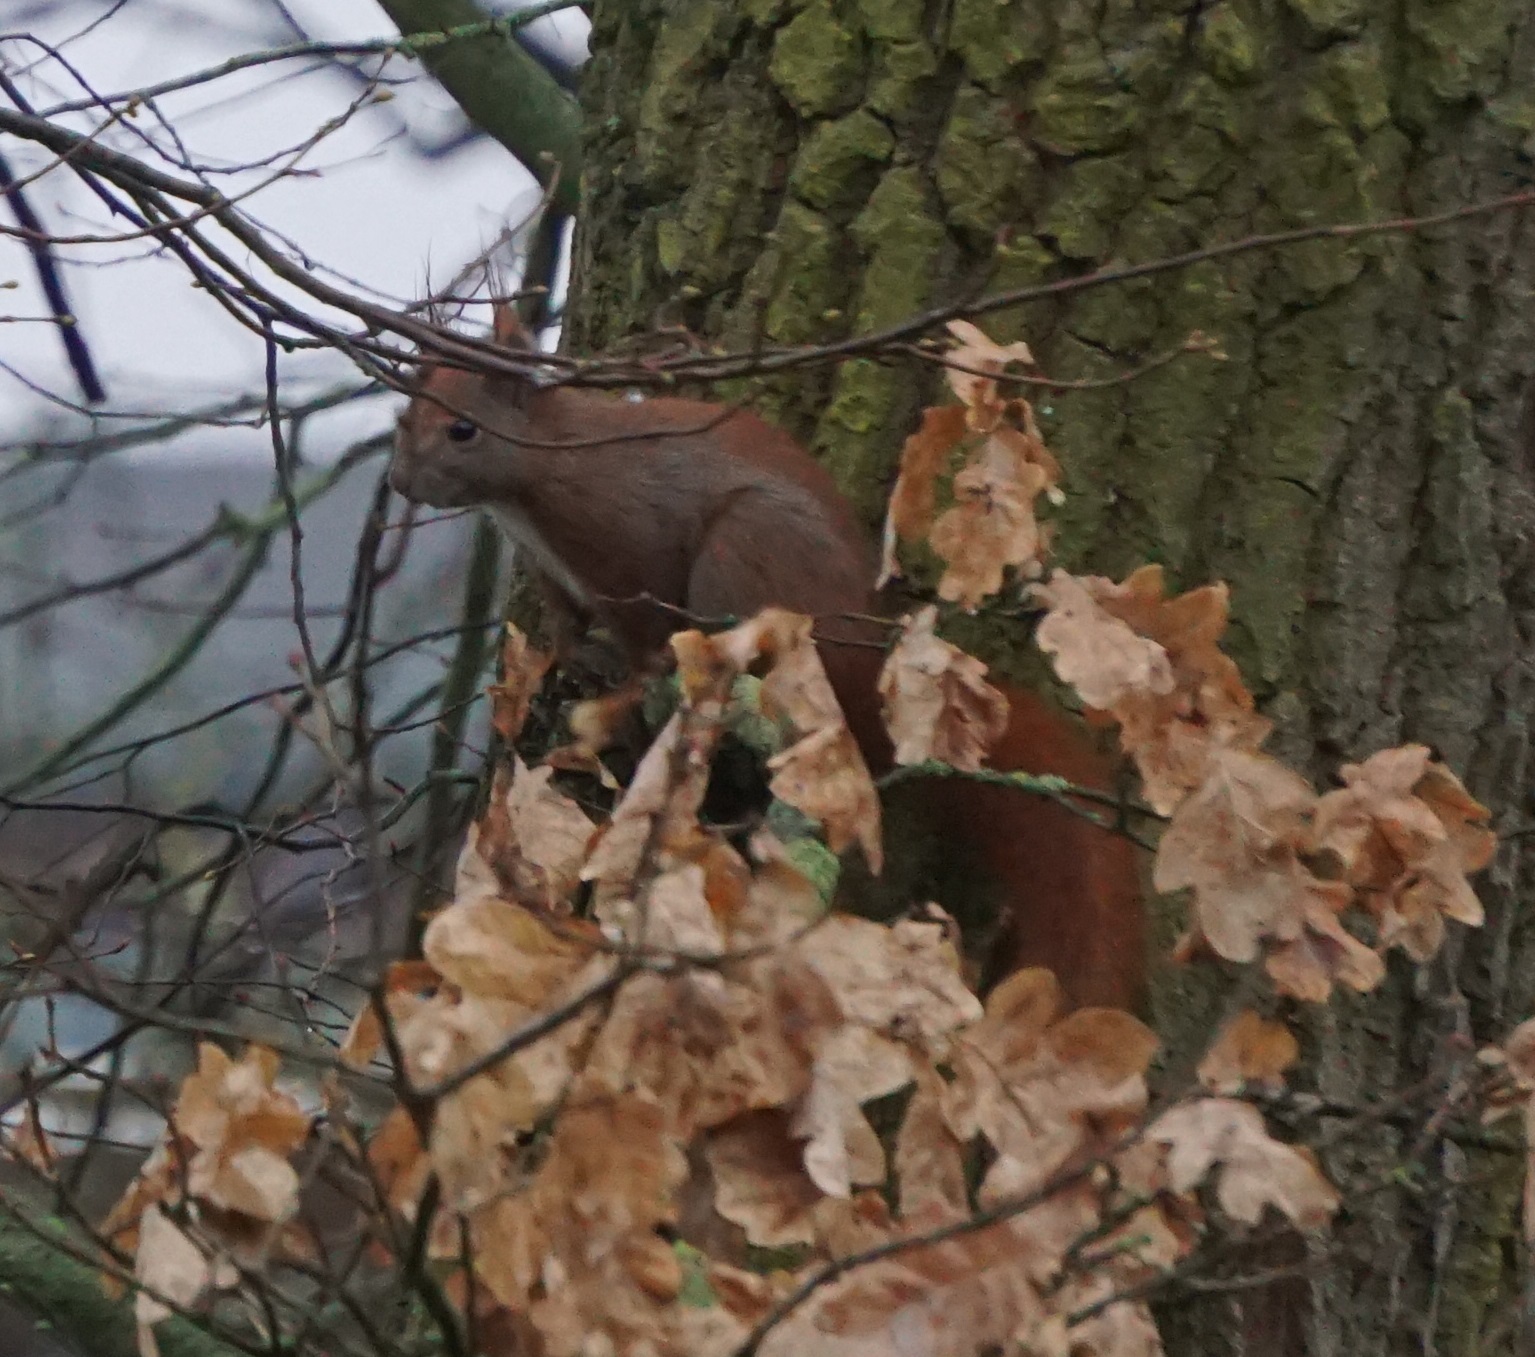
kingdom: Animalia
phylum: Chordata
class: Mammalia
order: Rodentia
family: Sciuridae
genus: Sciurus
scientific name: Sciurus vulgaris
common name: Eurasian red squirrel
